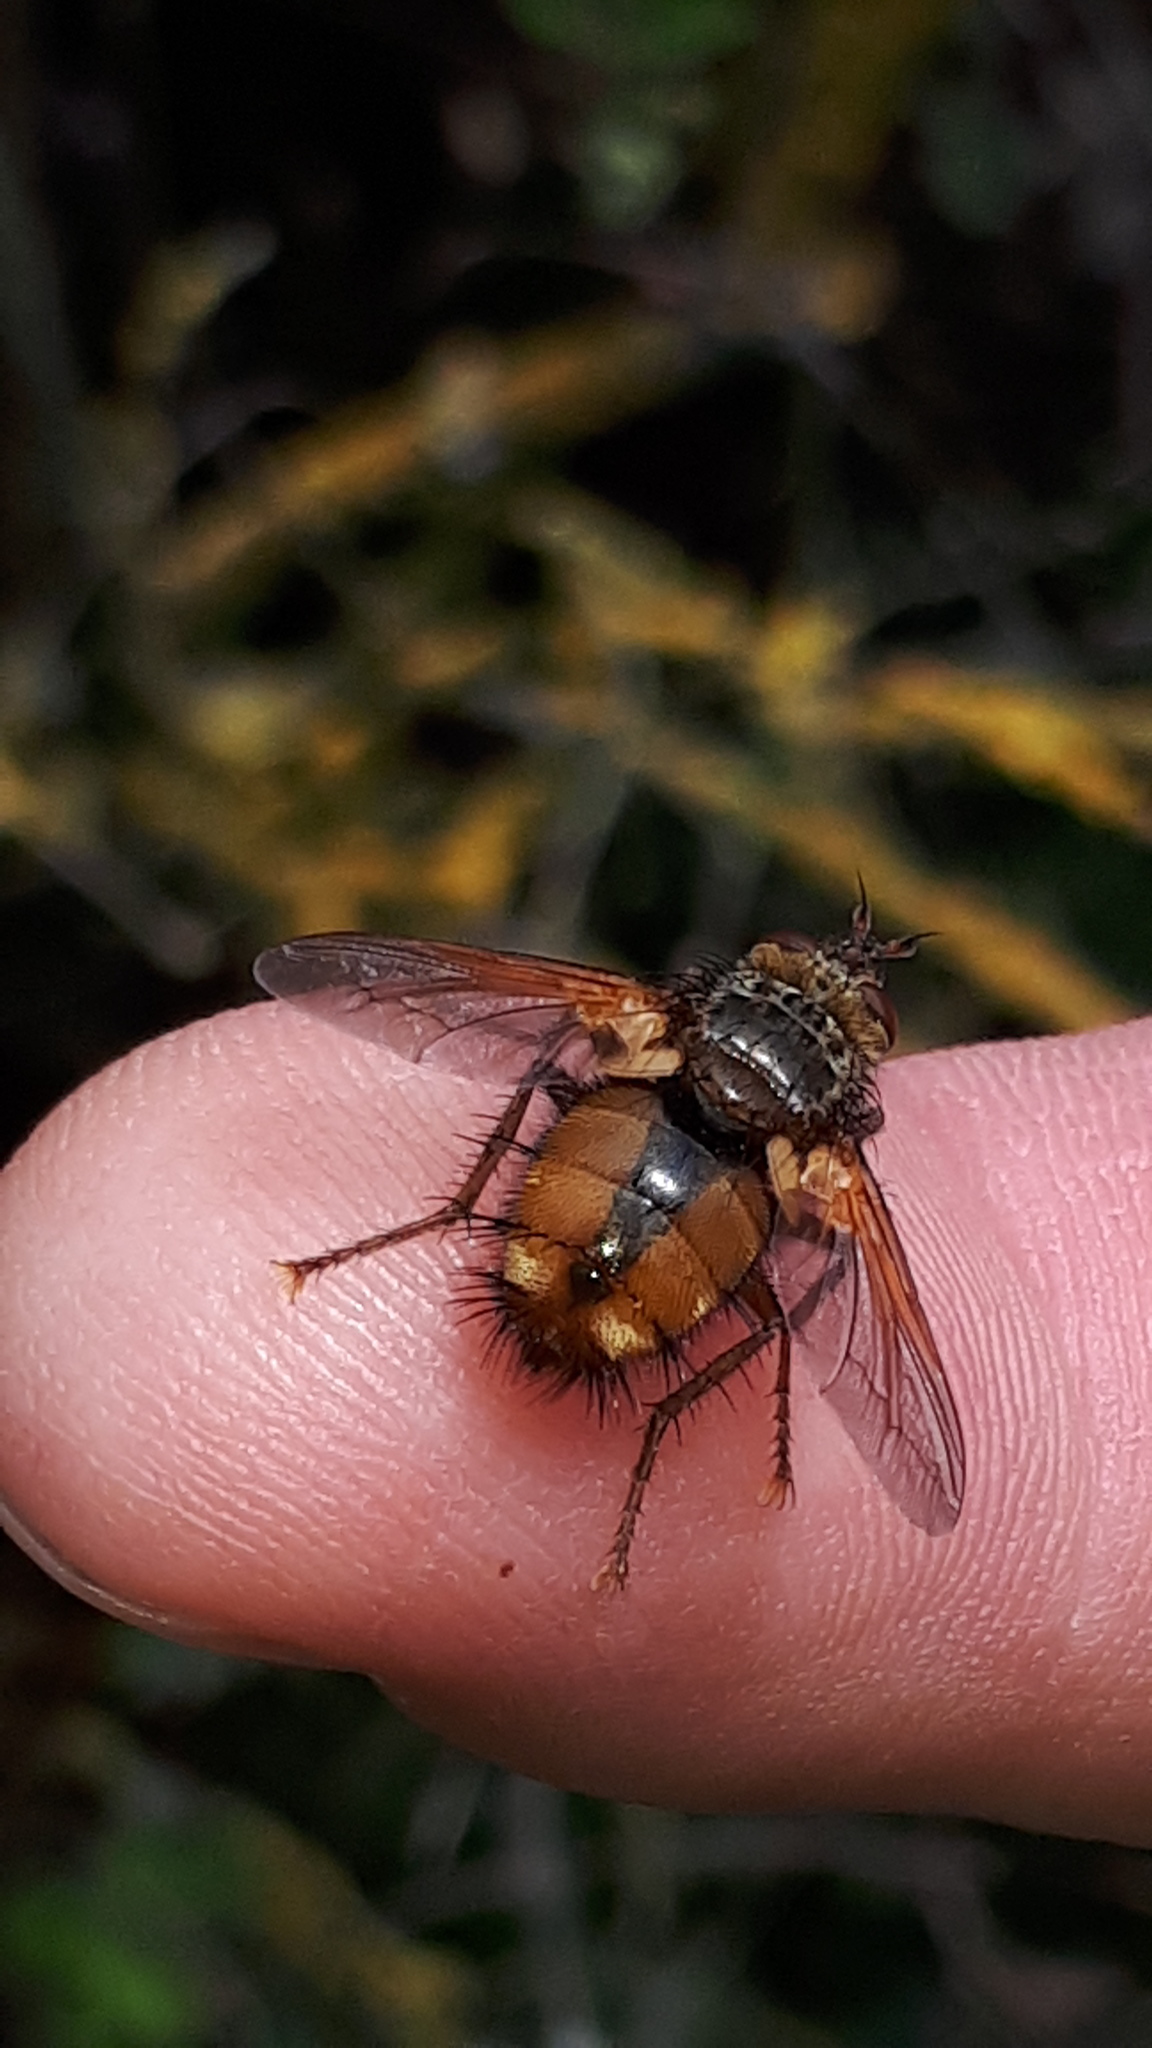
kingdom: Animalia
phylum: Arthropoda
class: Insecta
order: Diptera
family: Tachinidae
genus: Tachina
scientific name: Tachina fera
